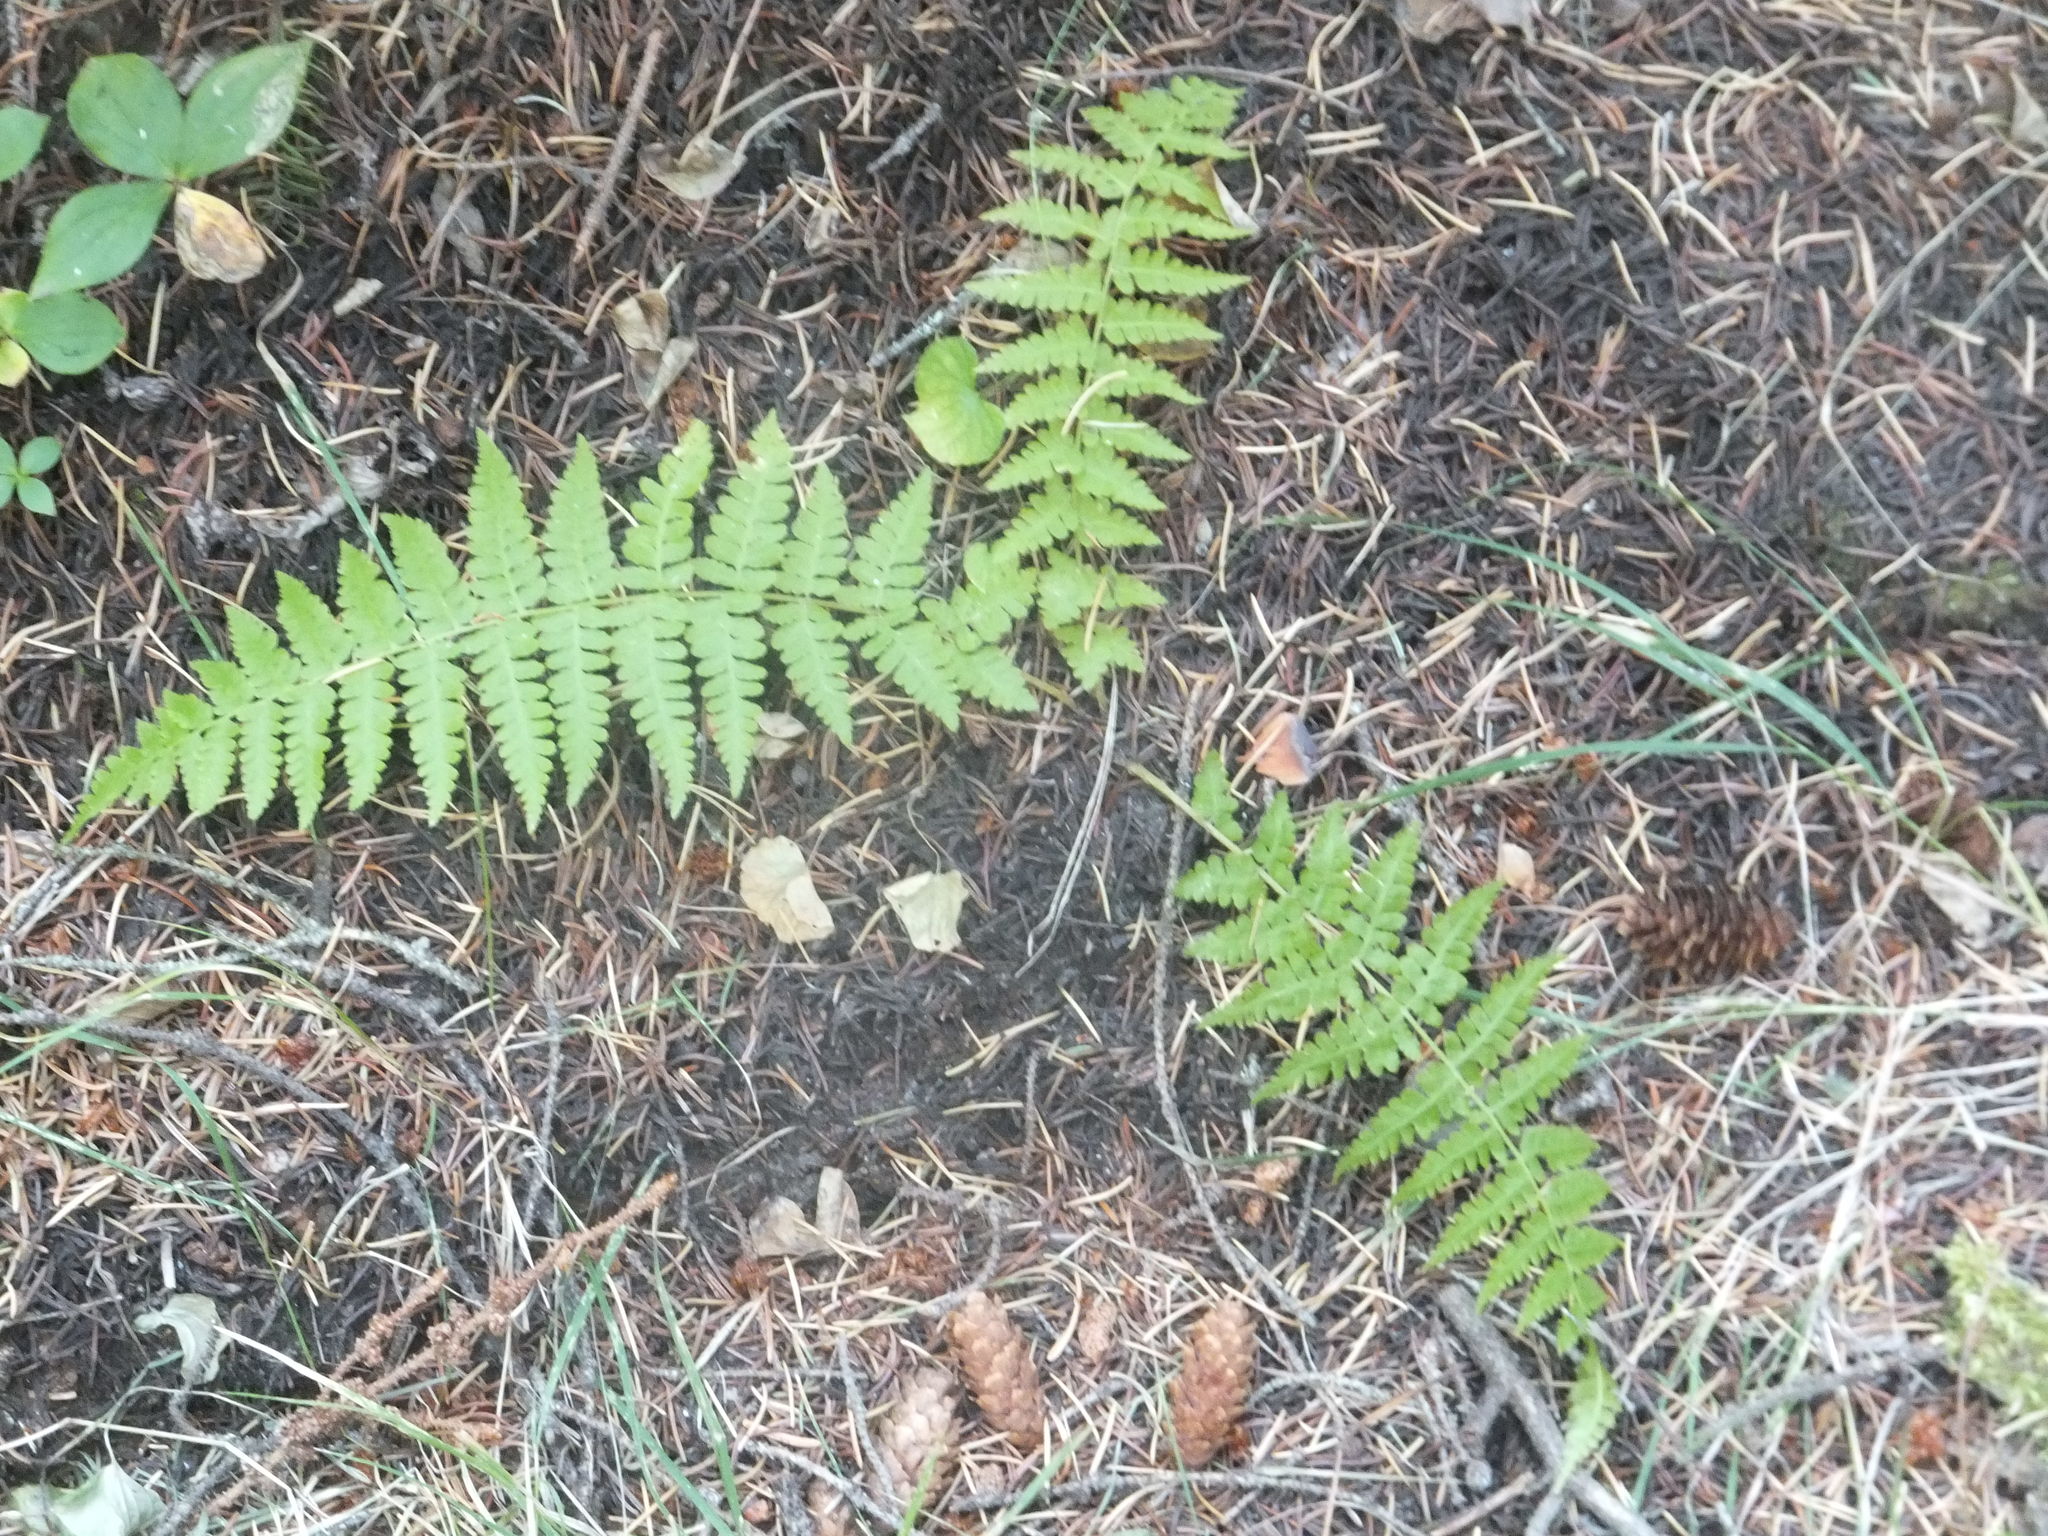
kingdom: Plantae
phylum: Tracheophyta
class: Polypodiopsida
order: Polypodiales
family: Athyriaceae
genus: Athyrium
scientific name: Athyrium filix-femina
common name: Lady fern
